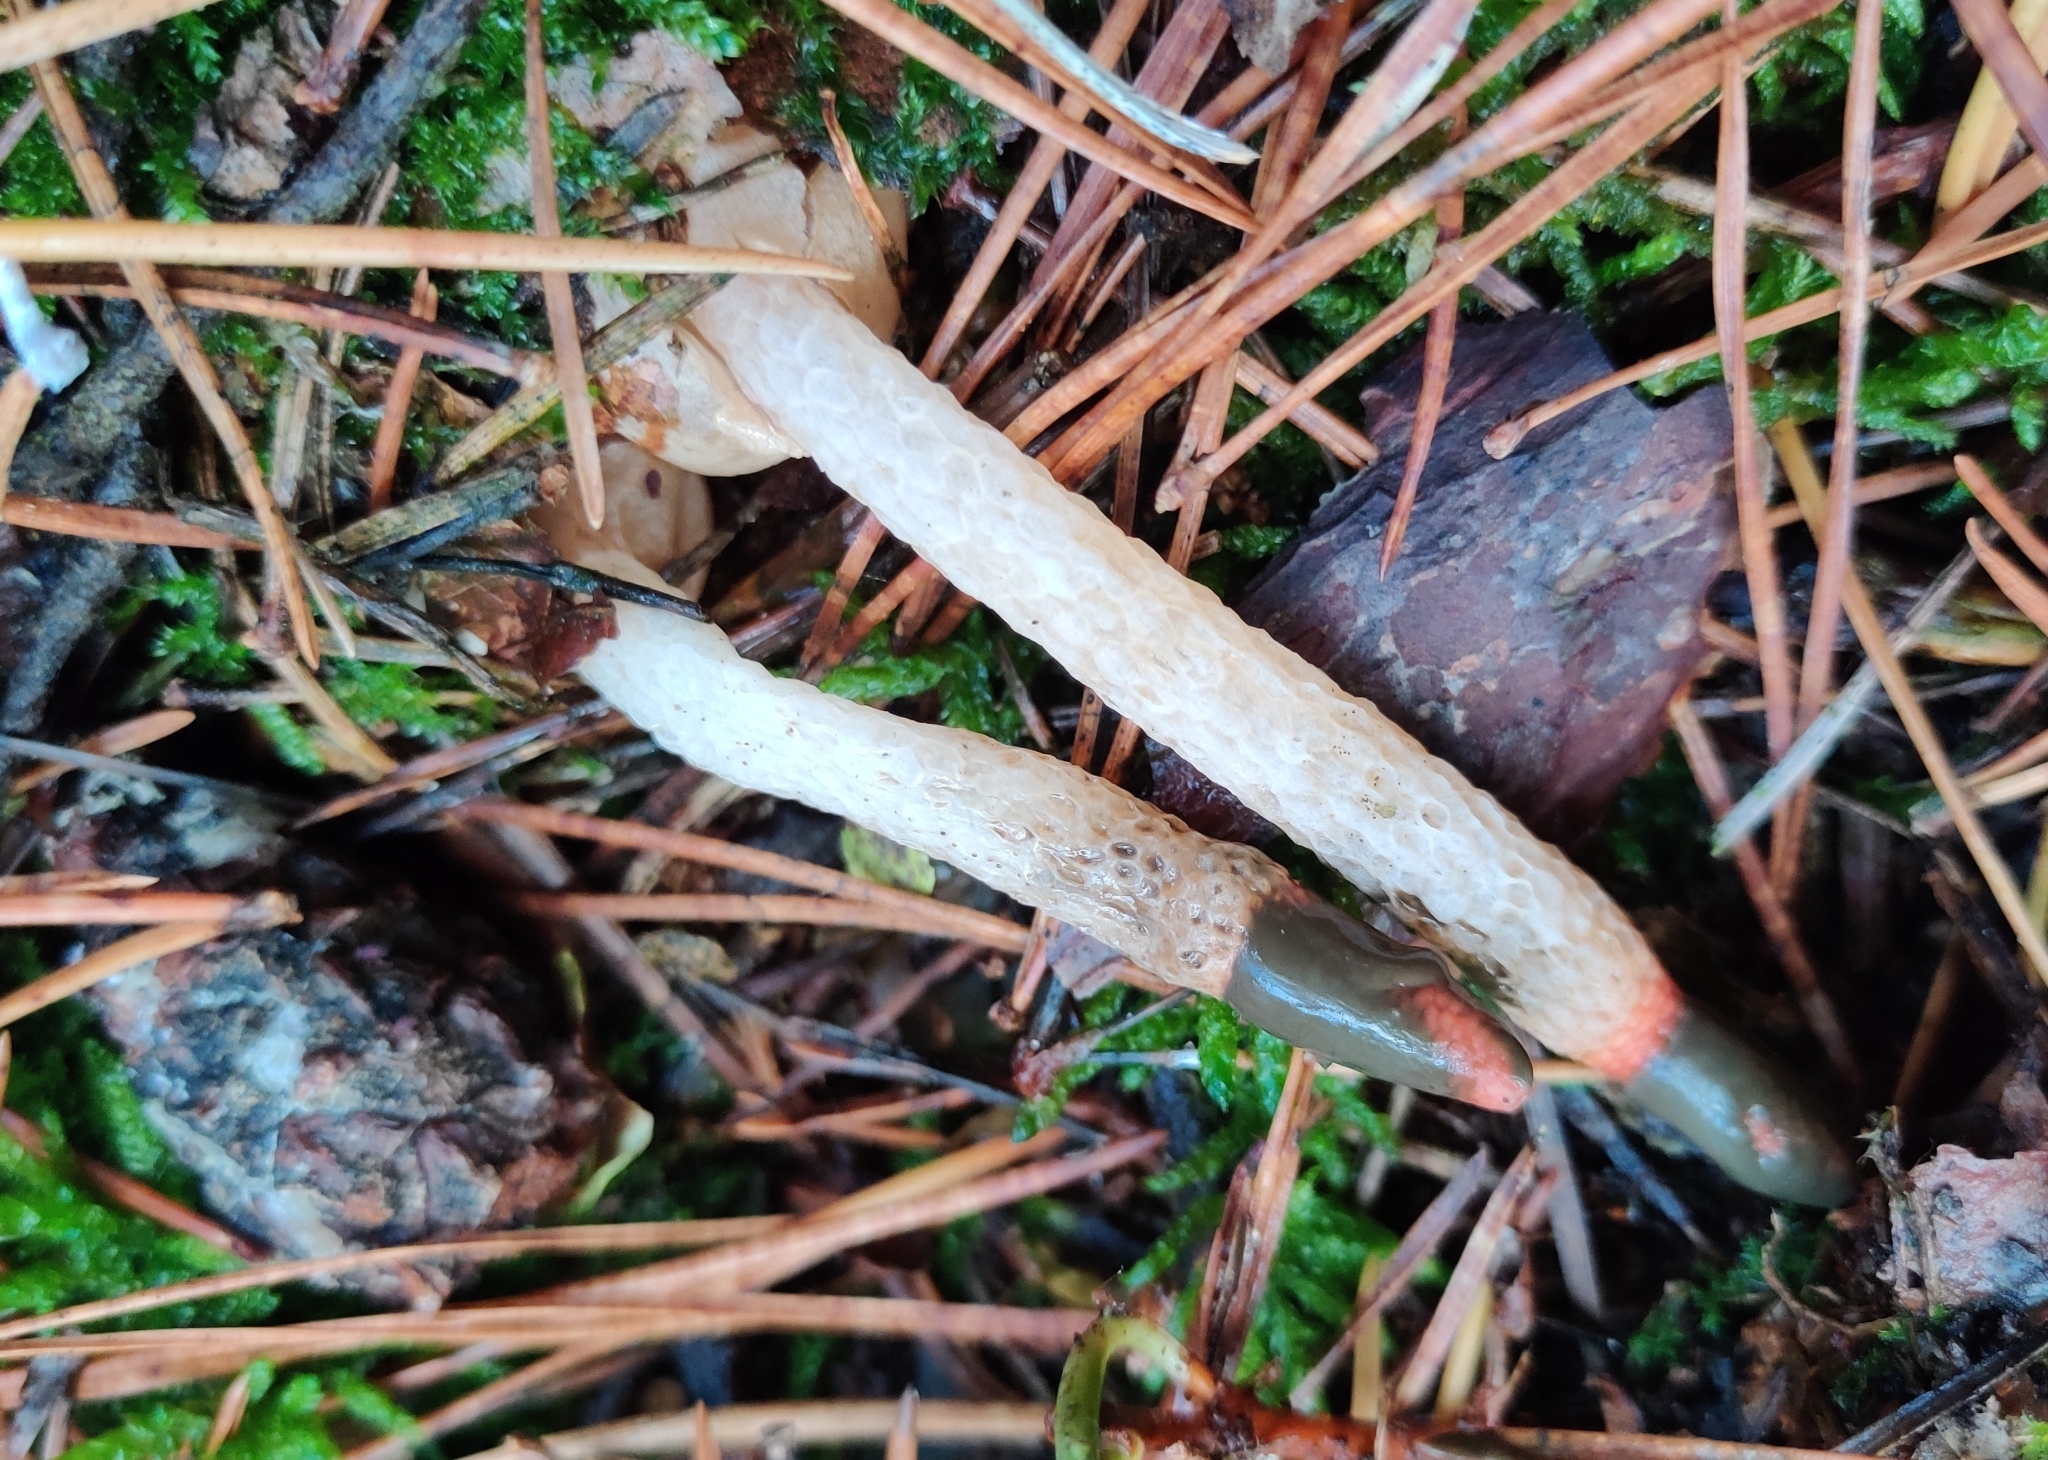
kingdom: Fungi
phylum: Basidiomycota
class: Agaricomycetes
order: Phallales
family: Phallaceae
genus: Mutinus
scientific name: Mutinus caninus
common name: Dog stinkhorn
